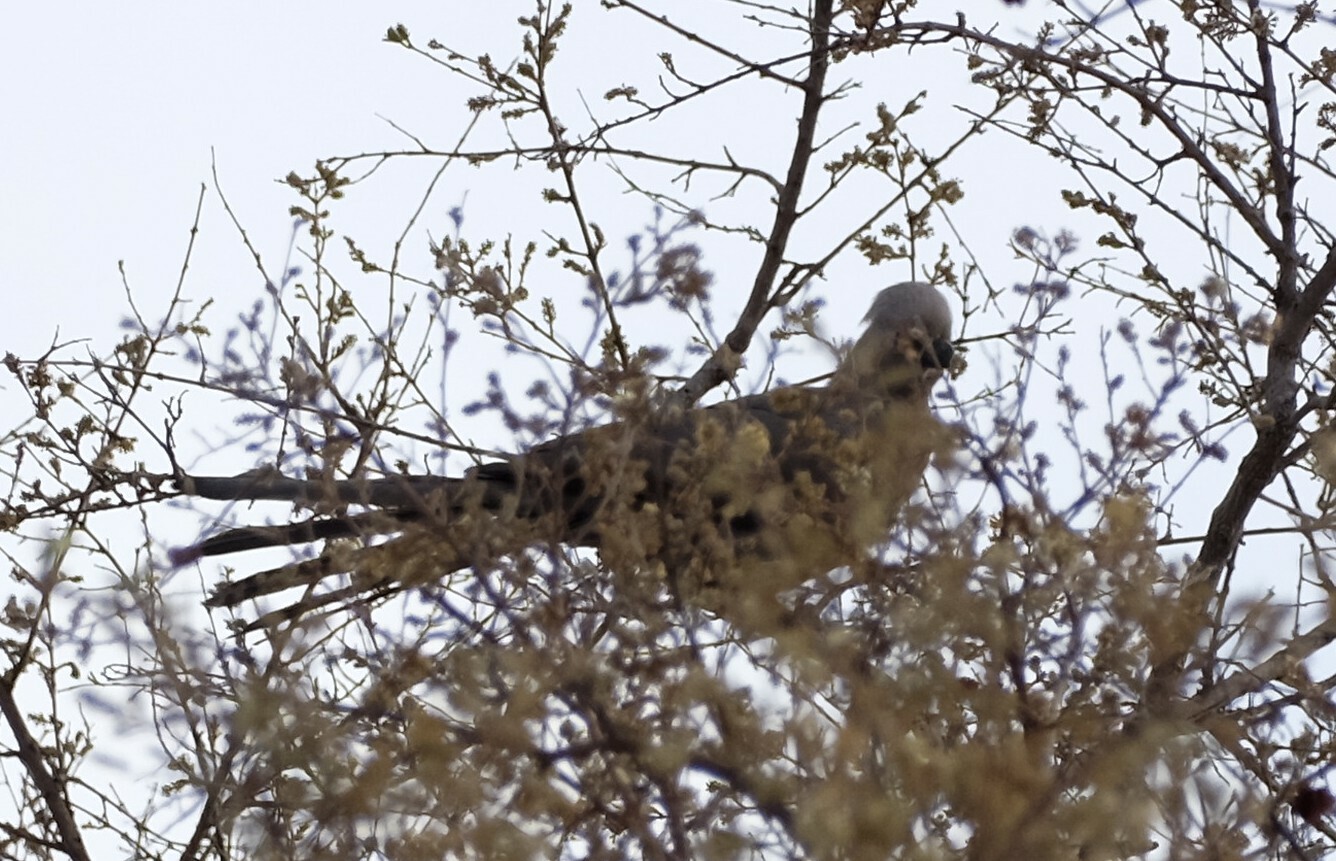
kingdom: Animalia
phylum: Chordata
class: Aves
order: Musophagiformes
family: Musophagidae
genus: Corythaixoides
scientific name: Corythaixoides concolor
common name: Grey go-away-bird
